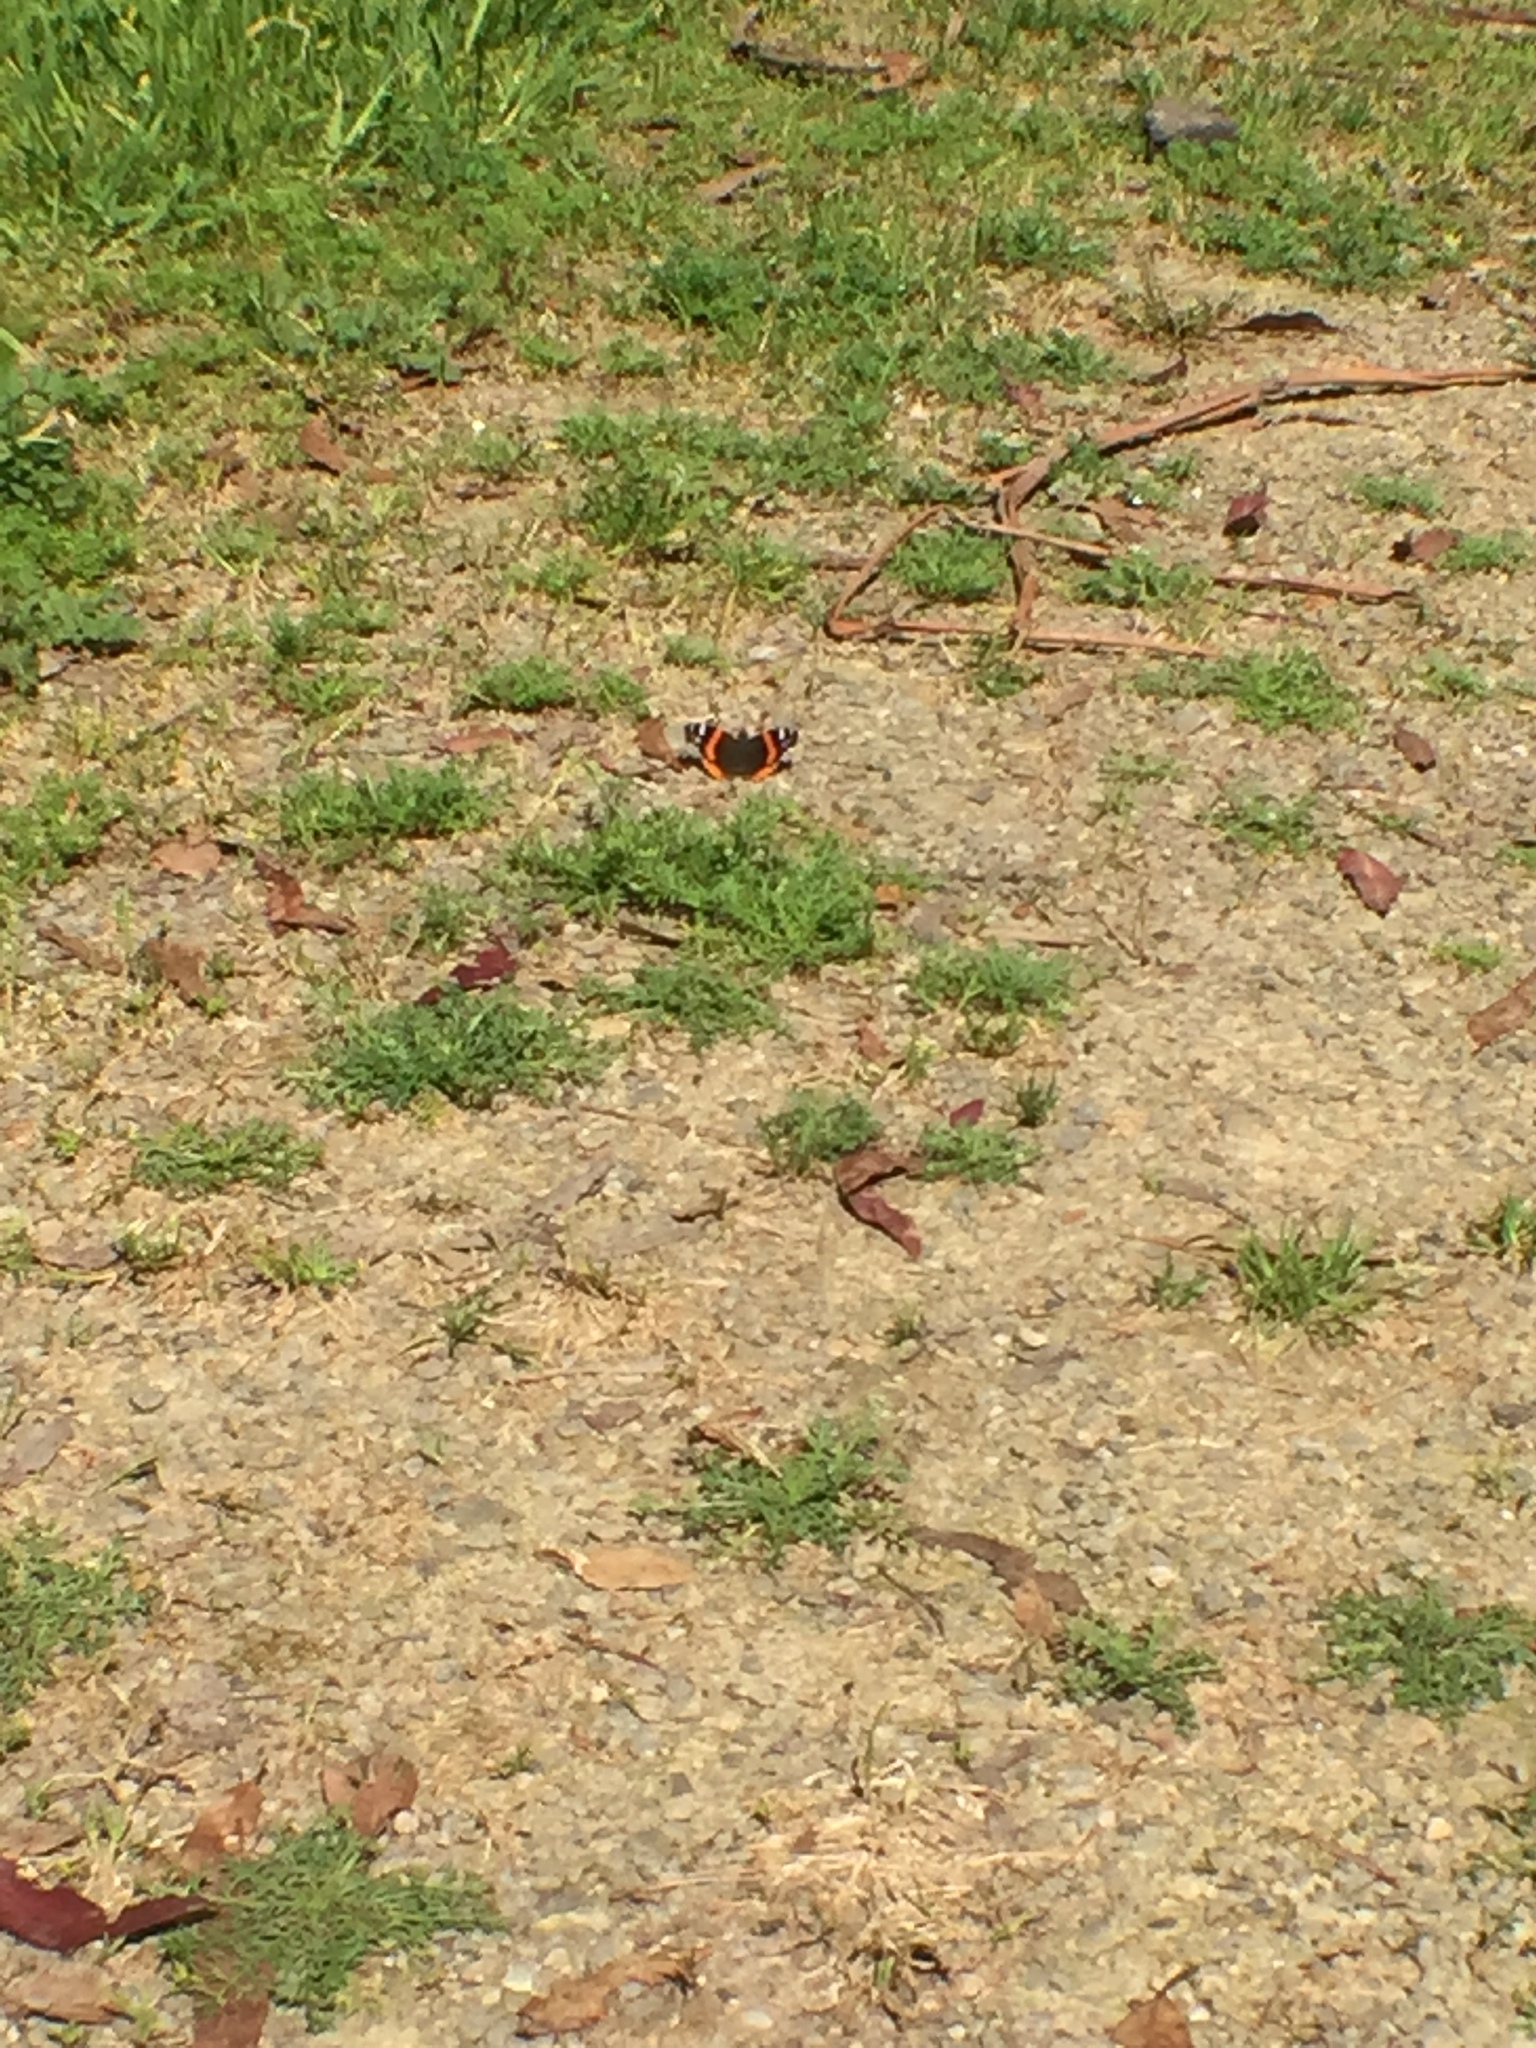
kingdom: Animalia
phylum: Arthropoda
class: Insecta
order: Lepidoptera
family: Nymphalidae
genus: Vanessa
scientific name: Vanessa atalanta
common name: Red admiral
